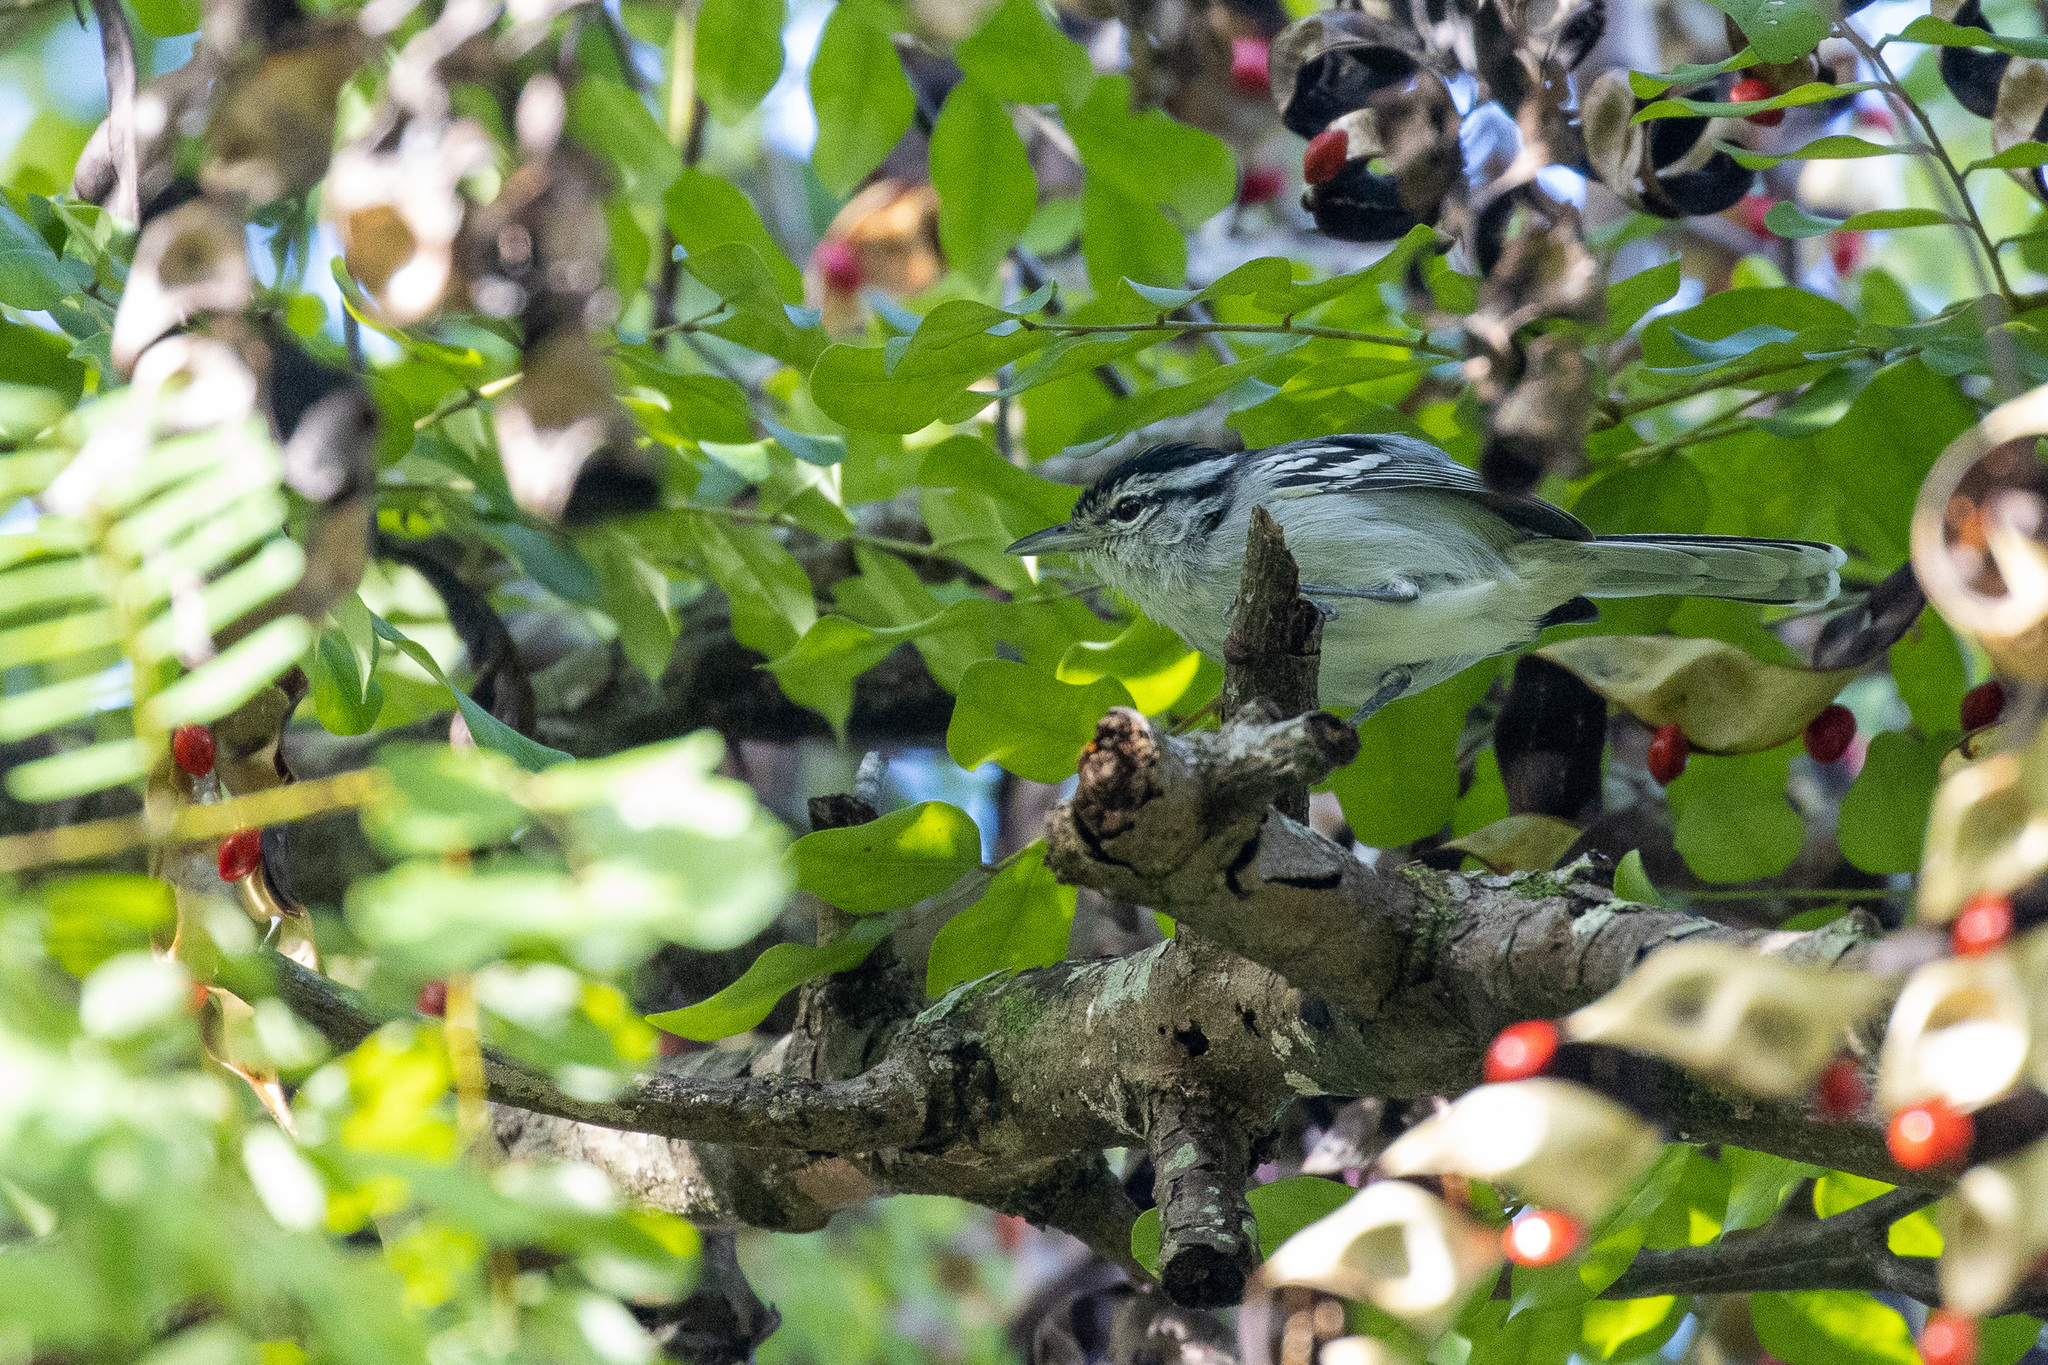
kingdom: Animalia
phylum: Chordata
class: Aves
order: Passeriformes
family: Thamnophilidae
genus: Herpsilochmus
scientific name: Herpsilochmus atricapillus
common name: Black-capped antwren
